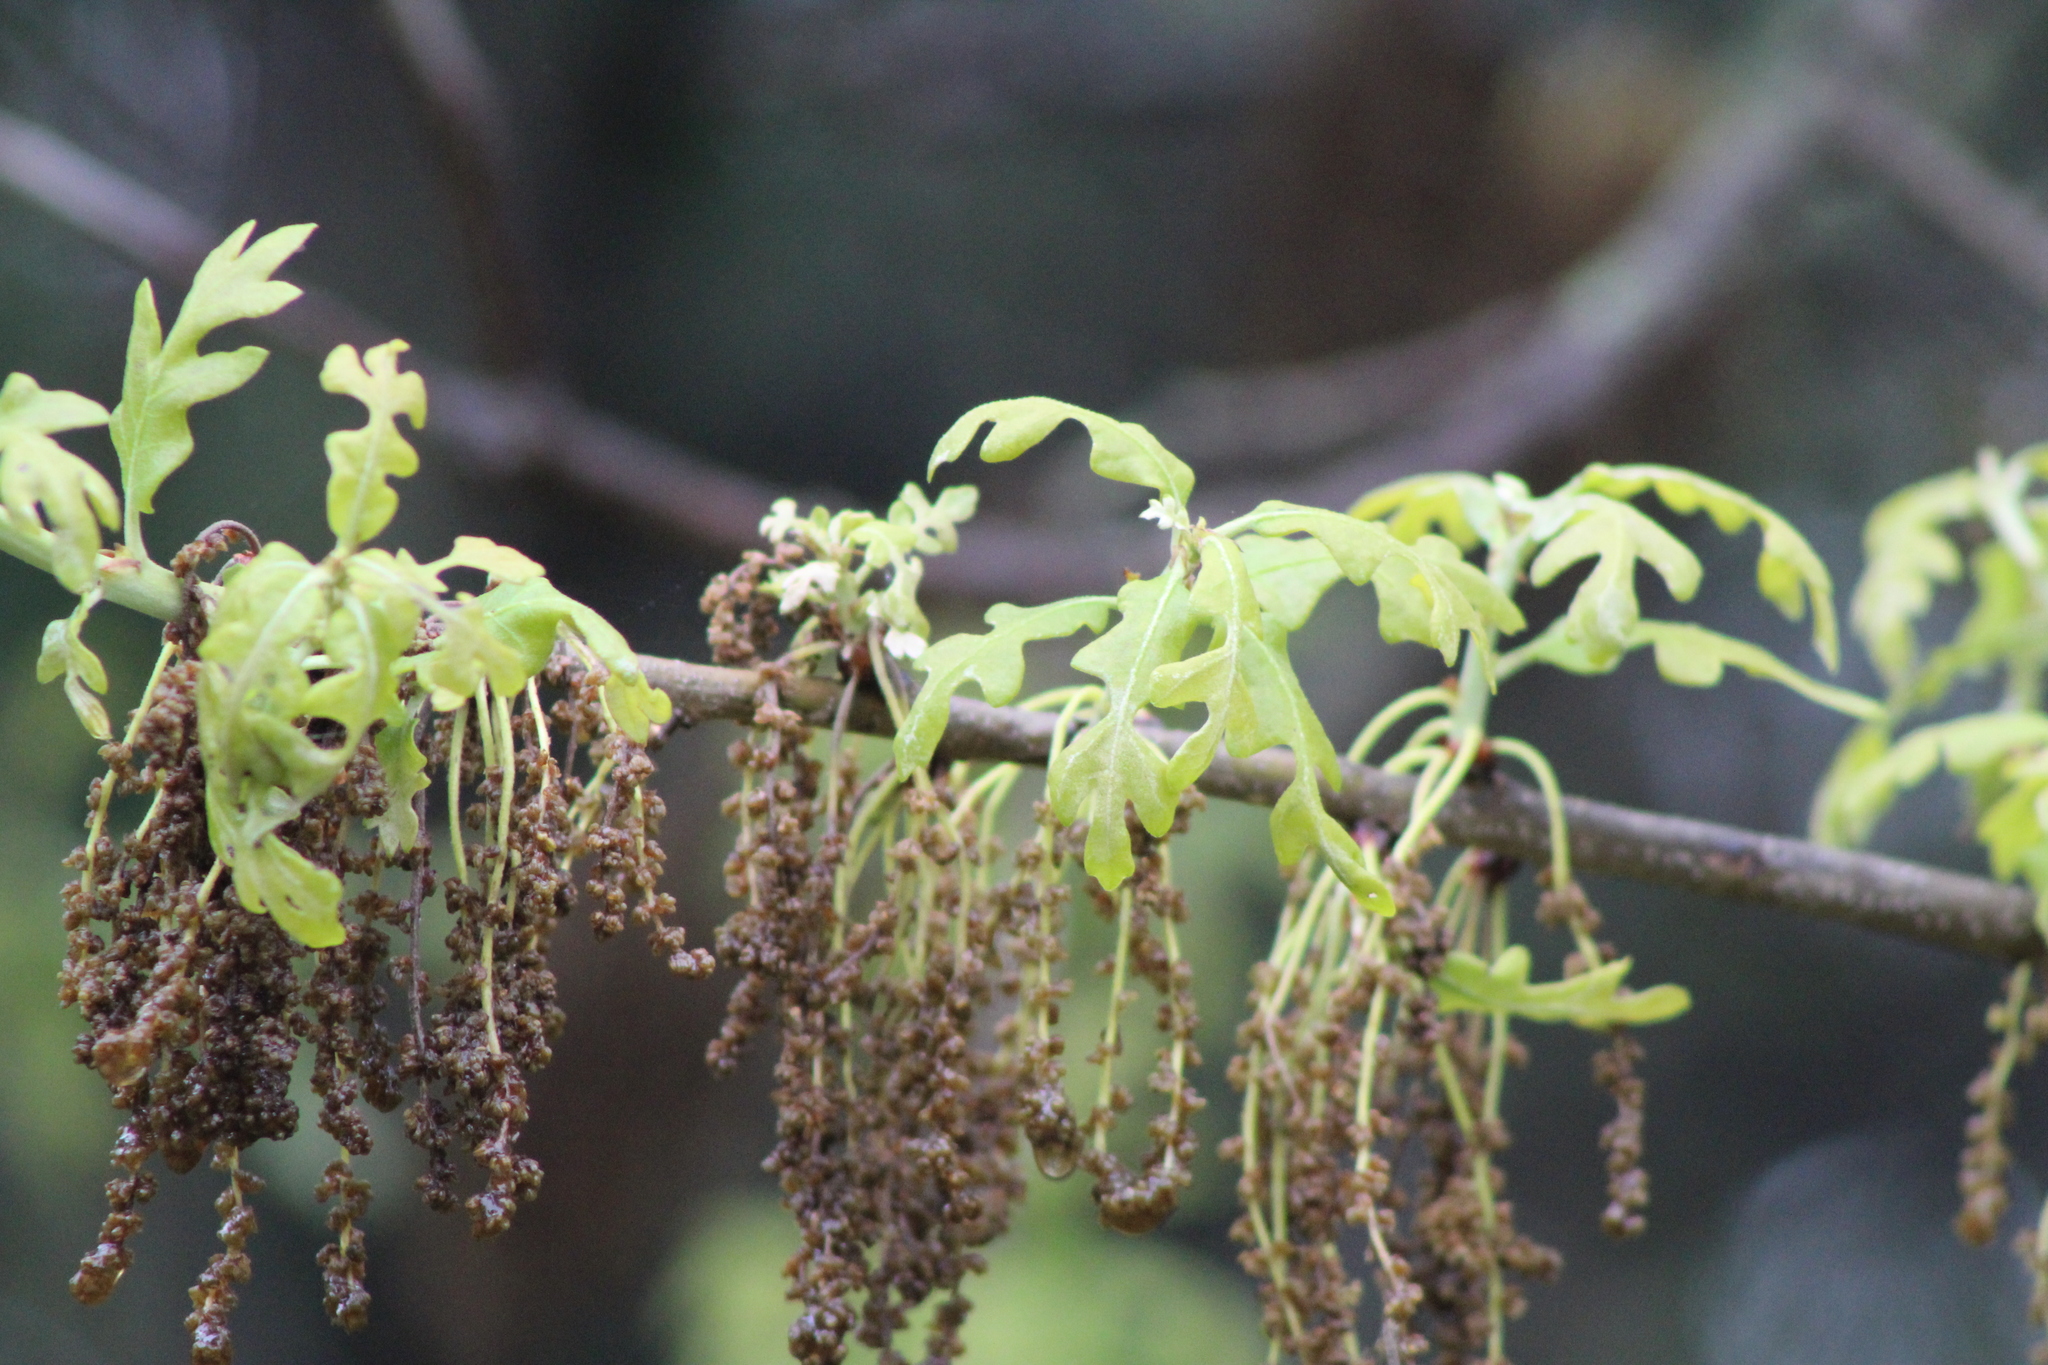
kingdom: Plantae
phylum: Tracheophyta
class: Magnoliopsida
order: Fagales
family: Fagaceae
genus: Quercus
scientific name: Quercus stellata
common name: Post oak
